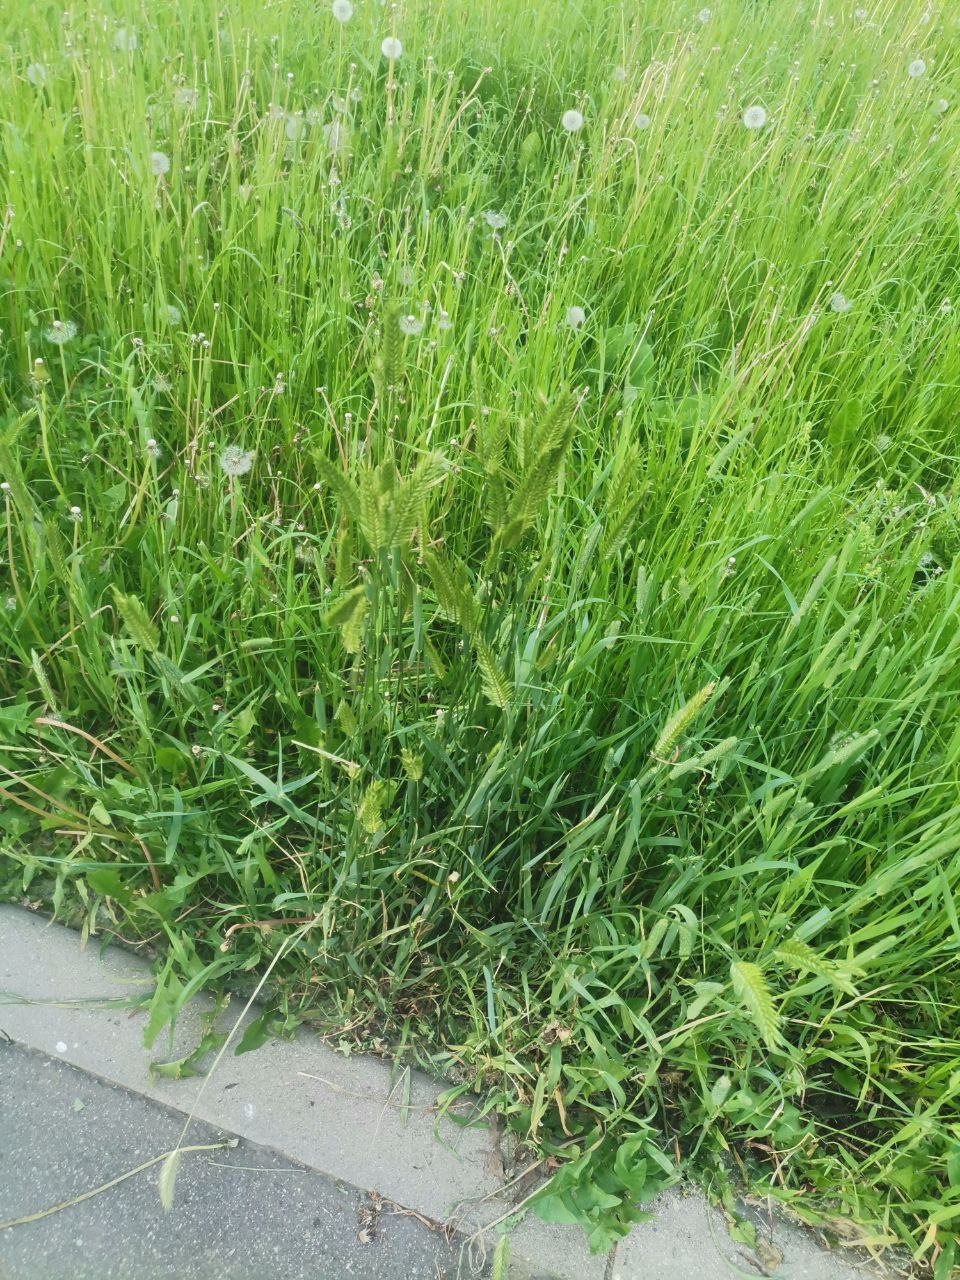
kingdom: Plantae
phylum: Tracheophyta
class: Liliopsida
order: Poales
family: Poaceae
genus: Agropyron
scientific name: Agropyron cristatum
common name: Crested wheatgrass
